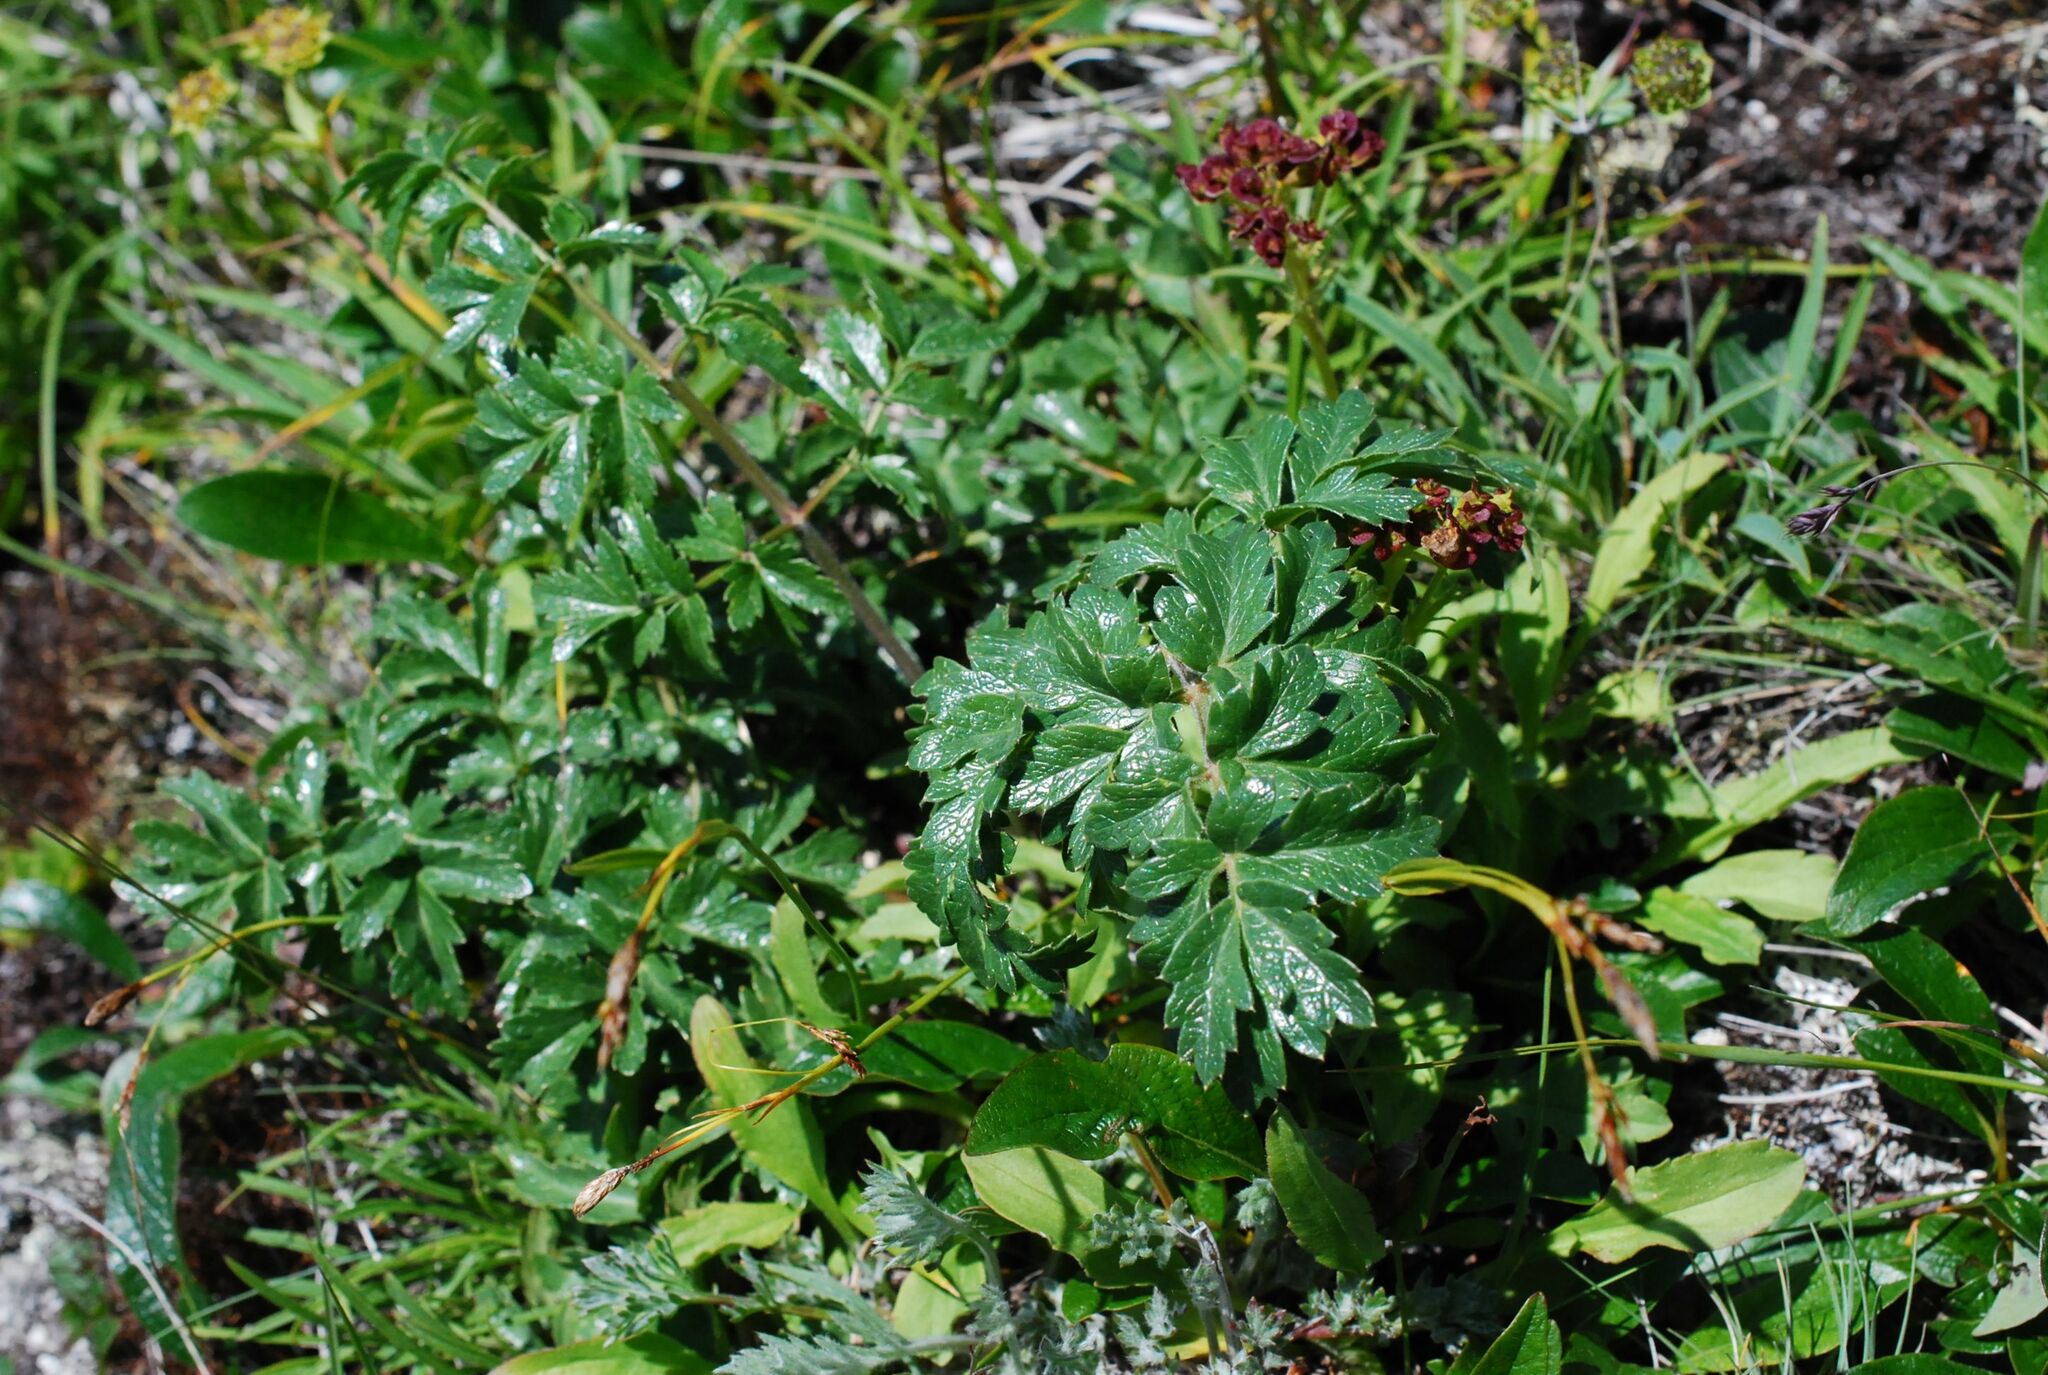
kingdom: Plantae
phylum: Tracheophyta
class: Magnoliopsida
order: Apiales
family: Apiaceae
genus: Magadania
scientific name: Magadania olaensis
